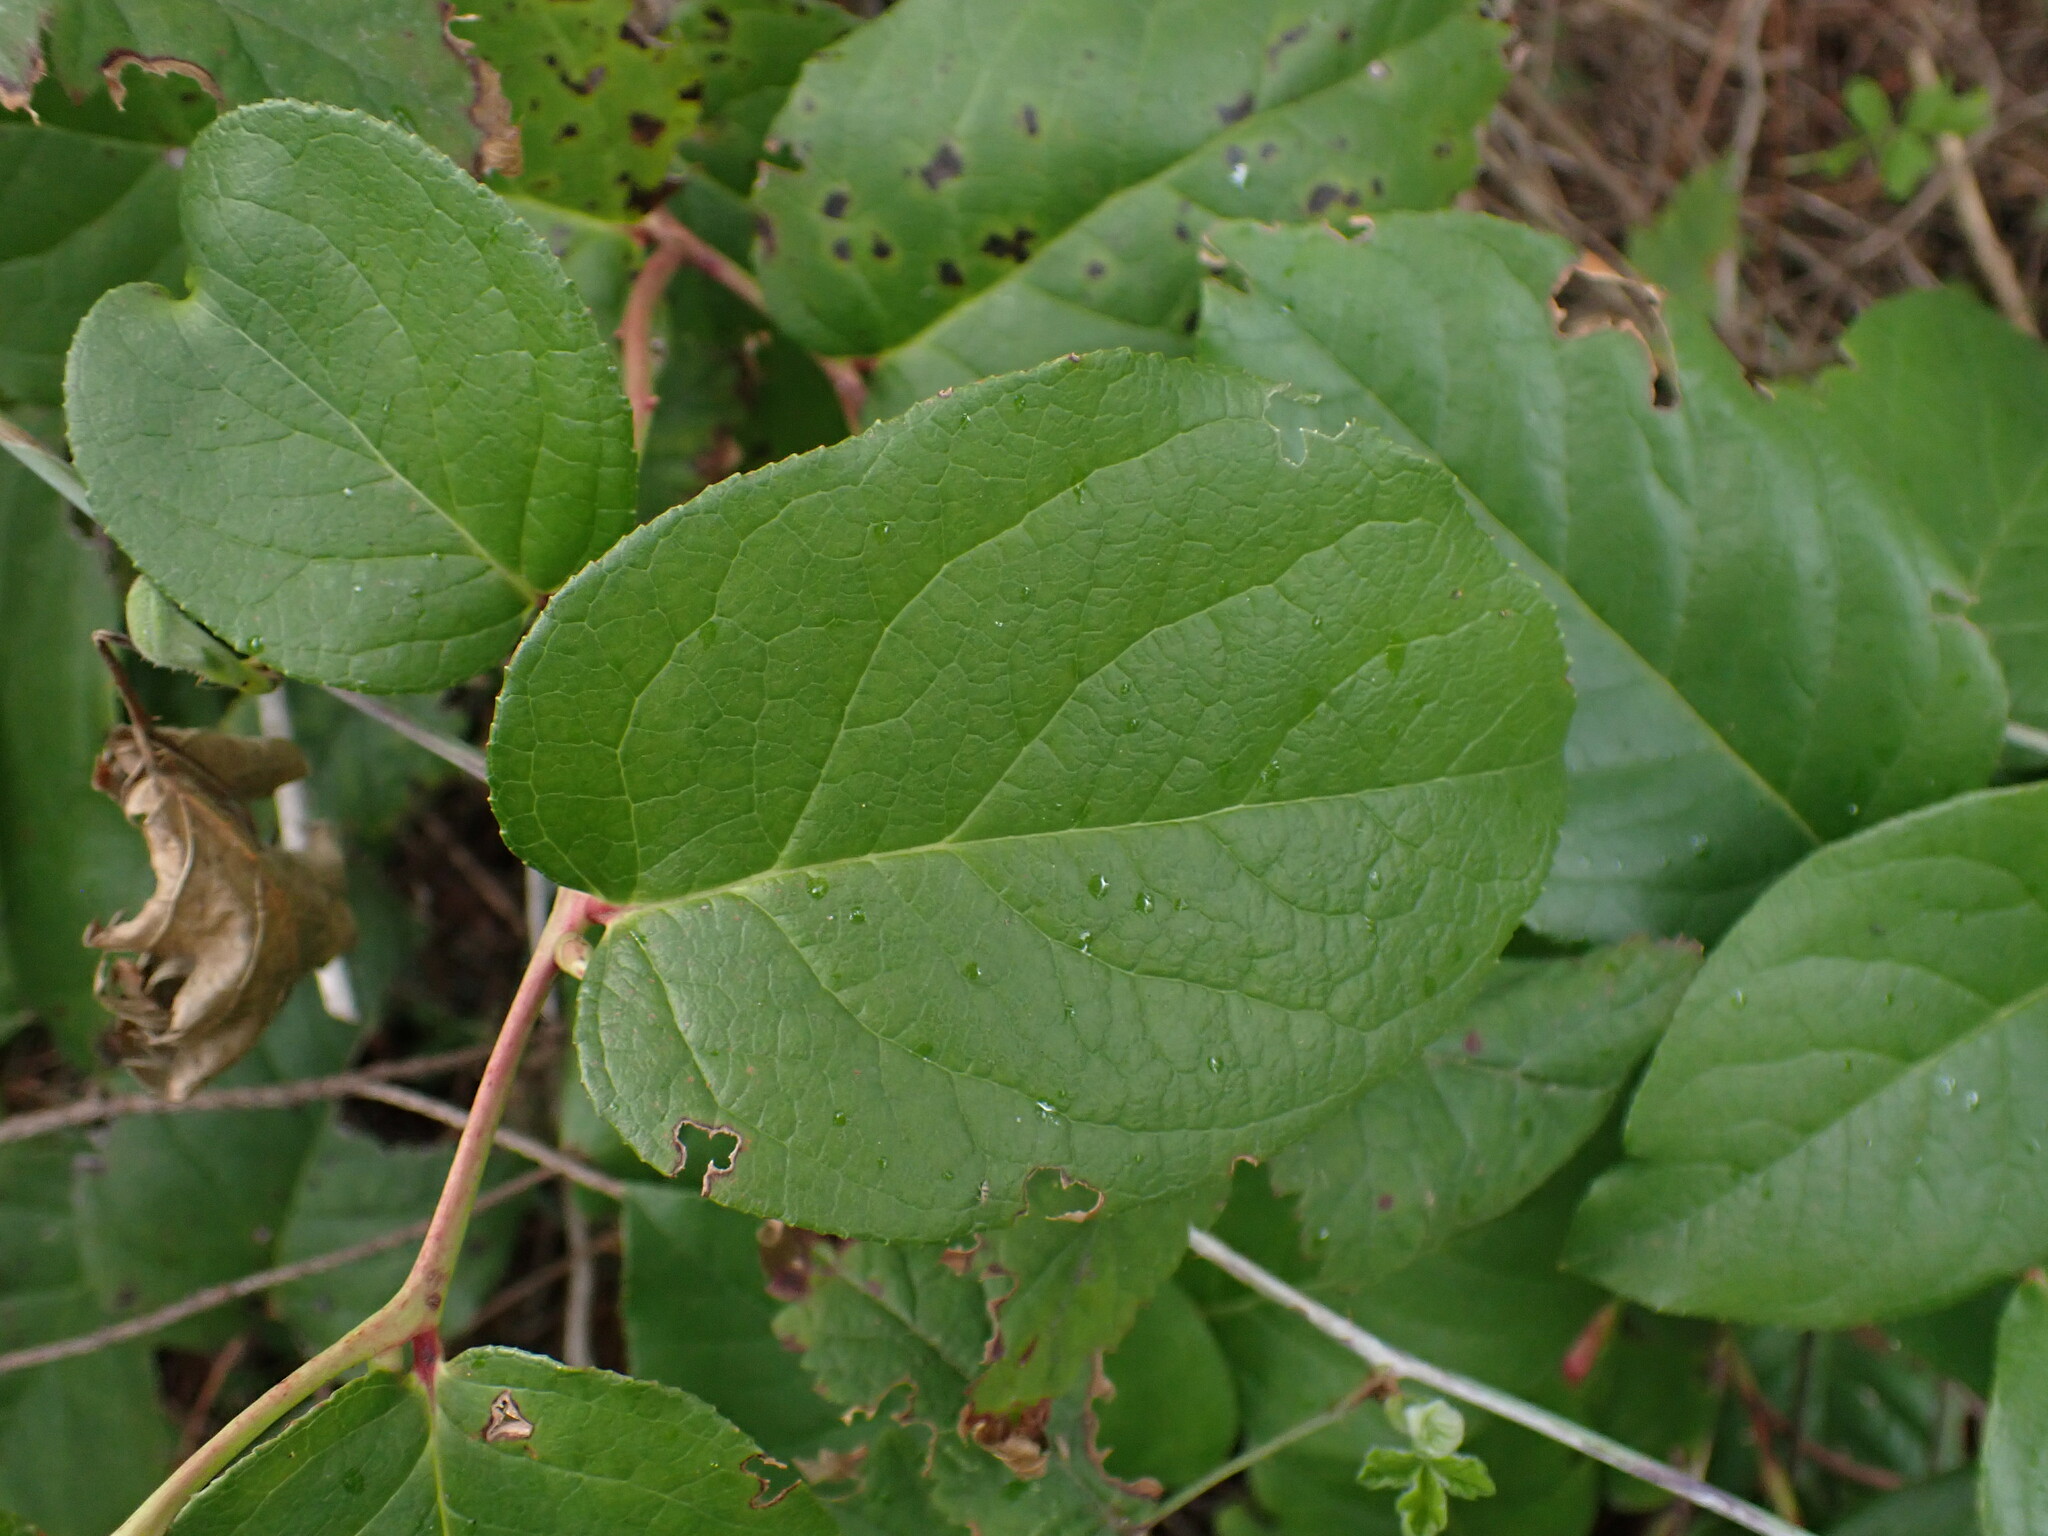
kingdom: Plantae
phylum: Tracheophyta
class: Magnoliopsida
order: Ericales
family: Ericaceae
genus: Gaultheria
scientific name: Gaultheria shallon
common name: Shallon
